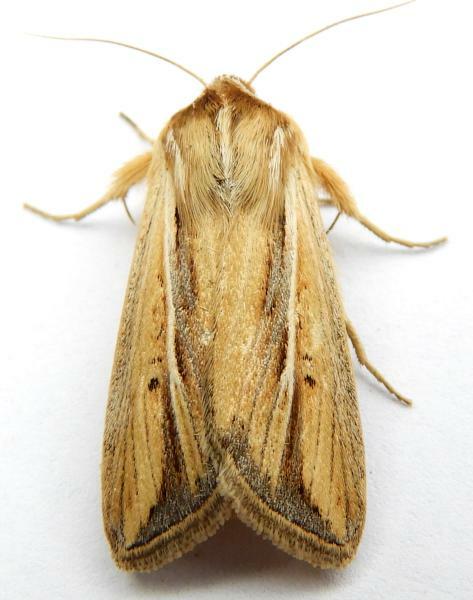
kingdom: Animalia
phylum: Arthropoda
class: Insecta
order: Lepidoptera
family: Noctuidae
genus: Dargida
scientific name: Dargida diffusa
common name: Wheat head armyworm
